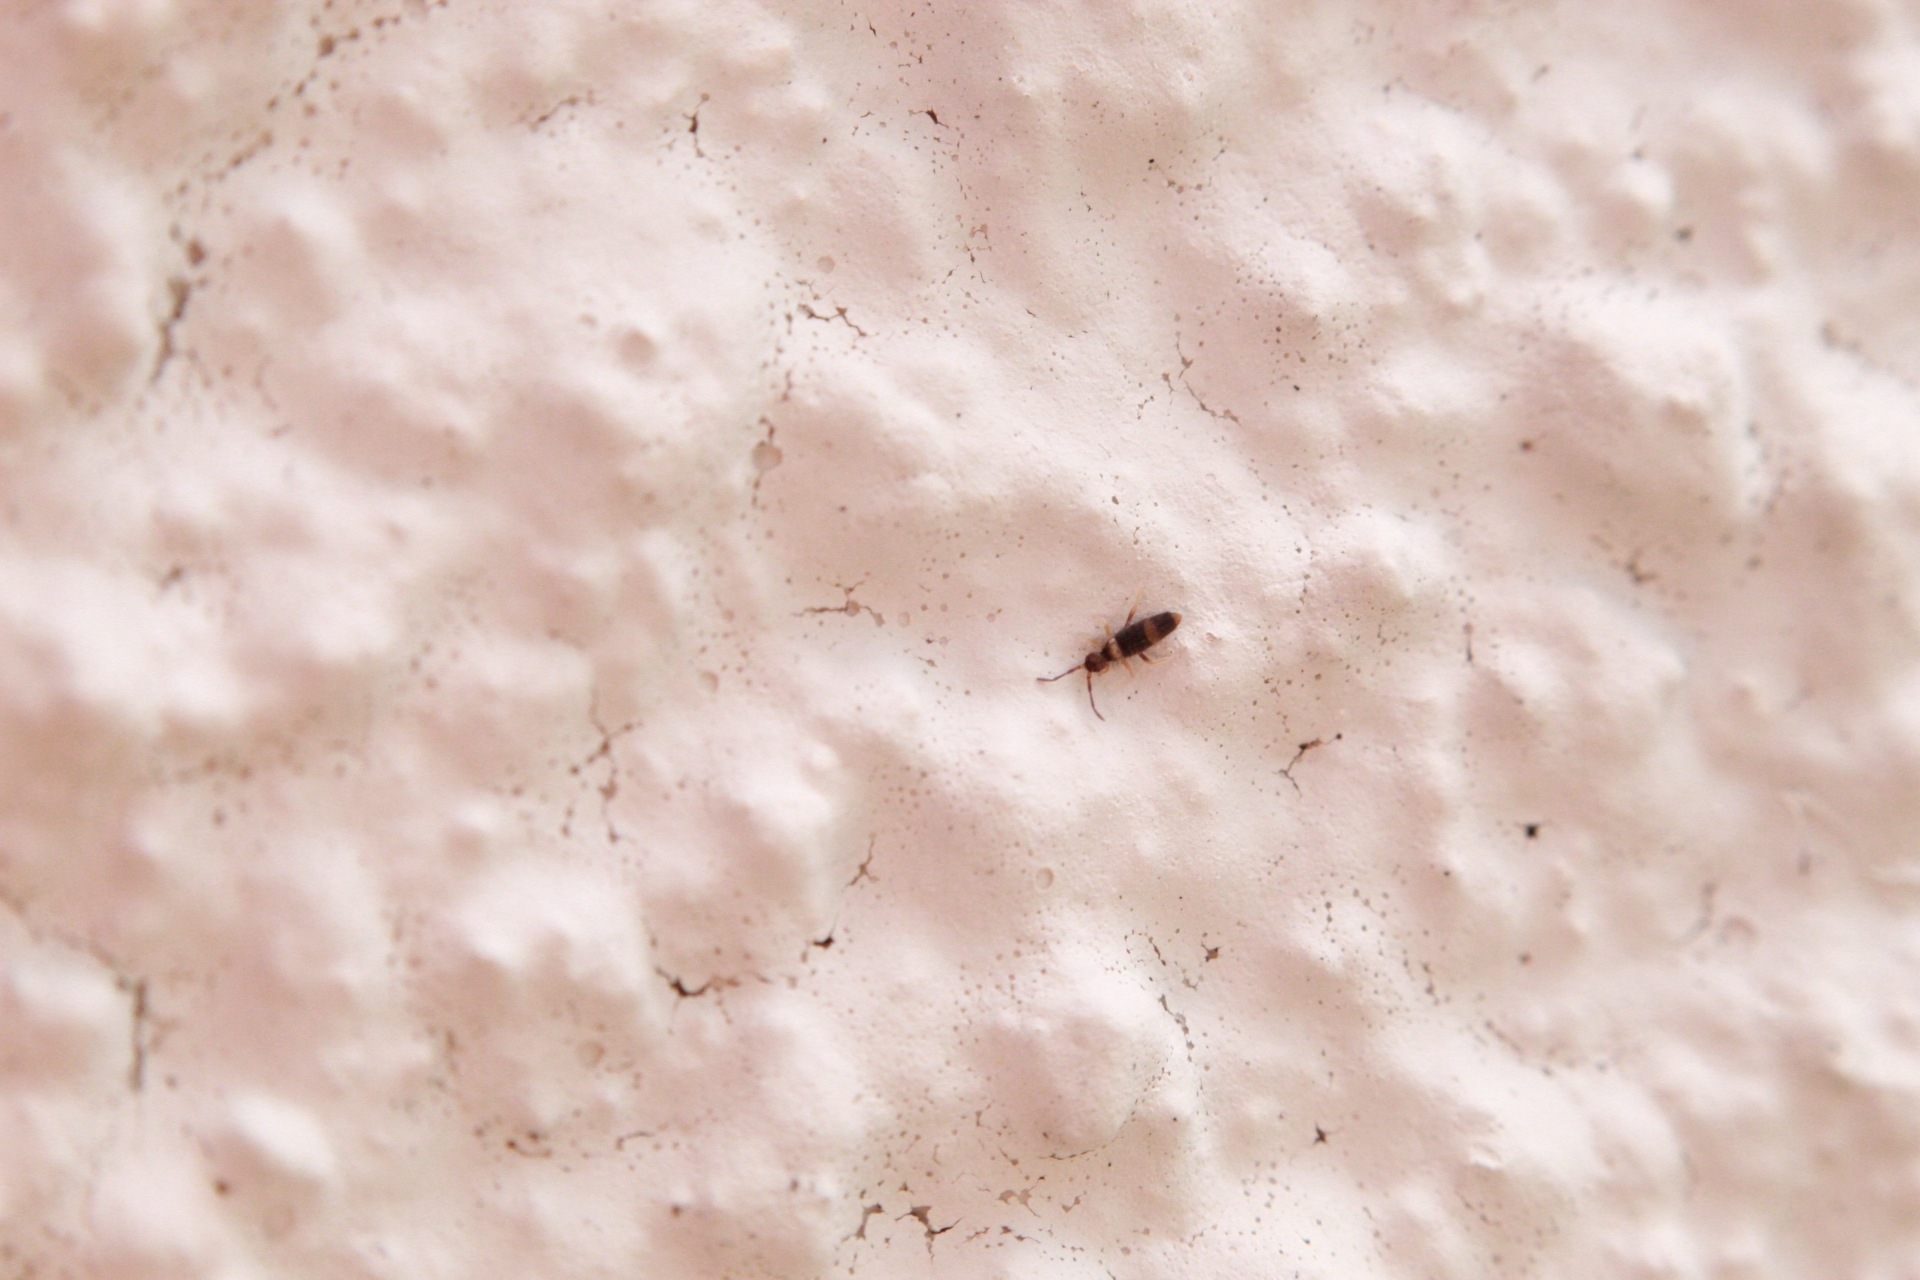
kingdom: Animalia
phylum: Arthropoda
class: Collembola
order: Entomobryomorpha
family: Entomobryidae
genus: Entomobrya
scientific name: Entomobrya albocincta
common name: Springtail
